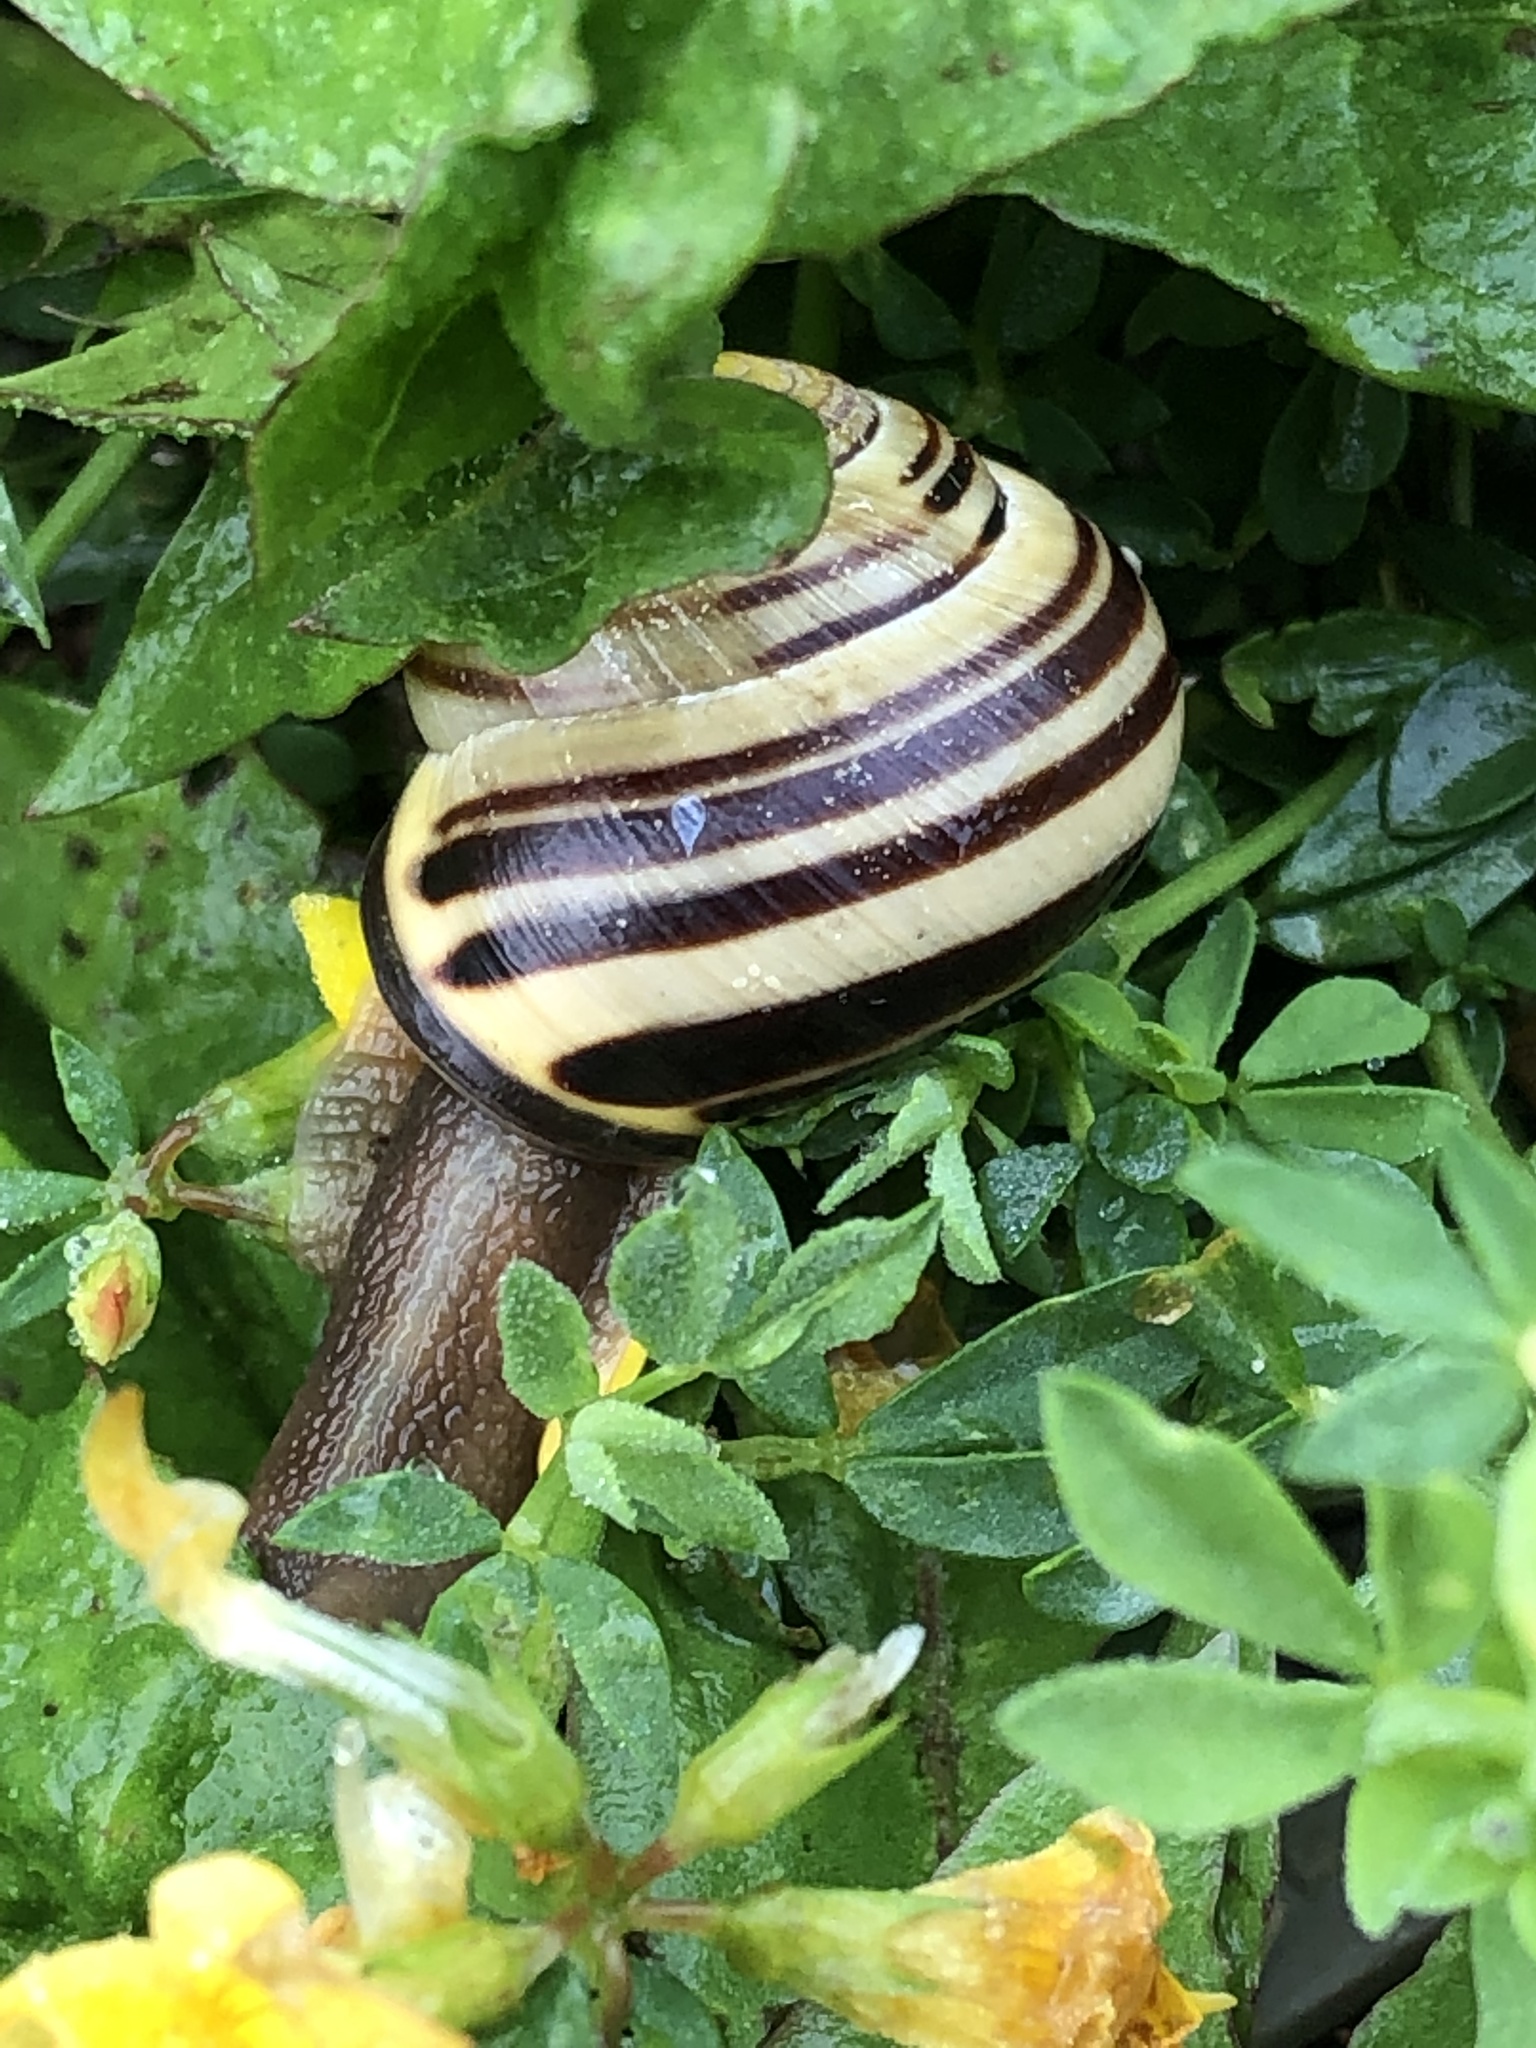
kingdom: Animalia
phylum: Mollusca
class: Gastropoda
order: Stylommatophora
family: Helicidae
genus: Cepaea
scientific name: Cepaea nemoralis
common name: Grovesnail
